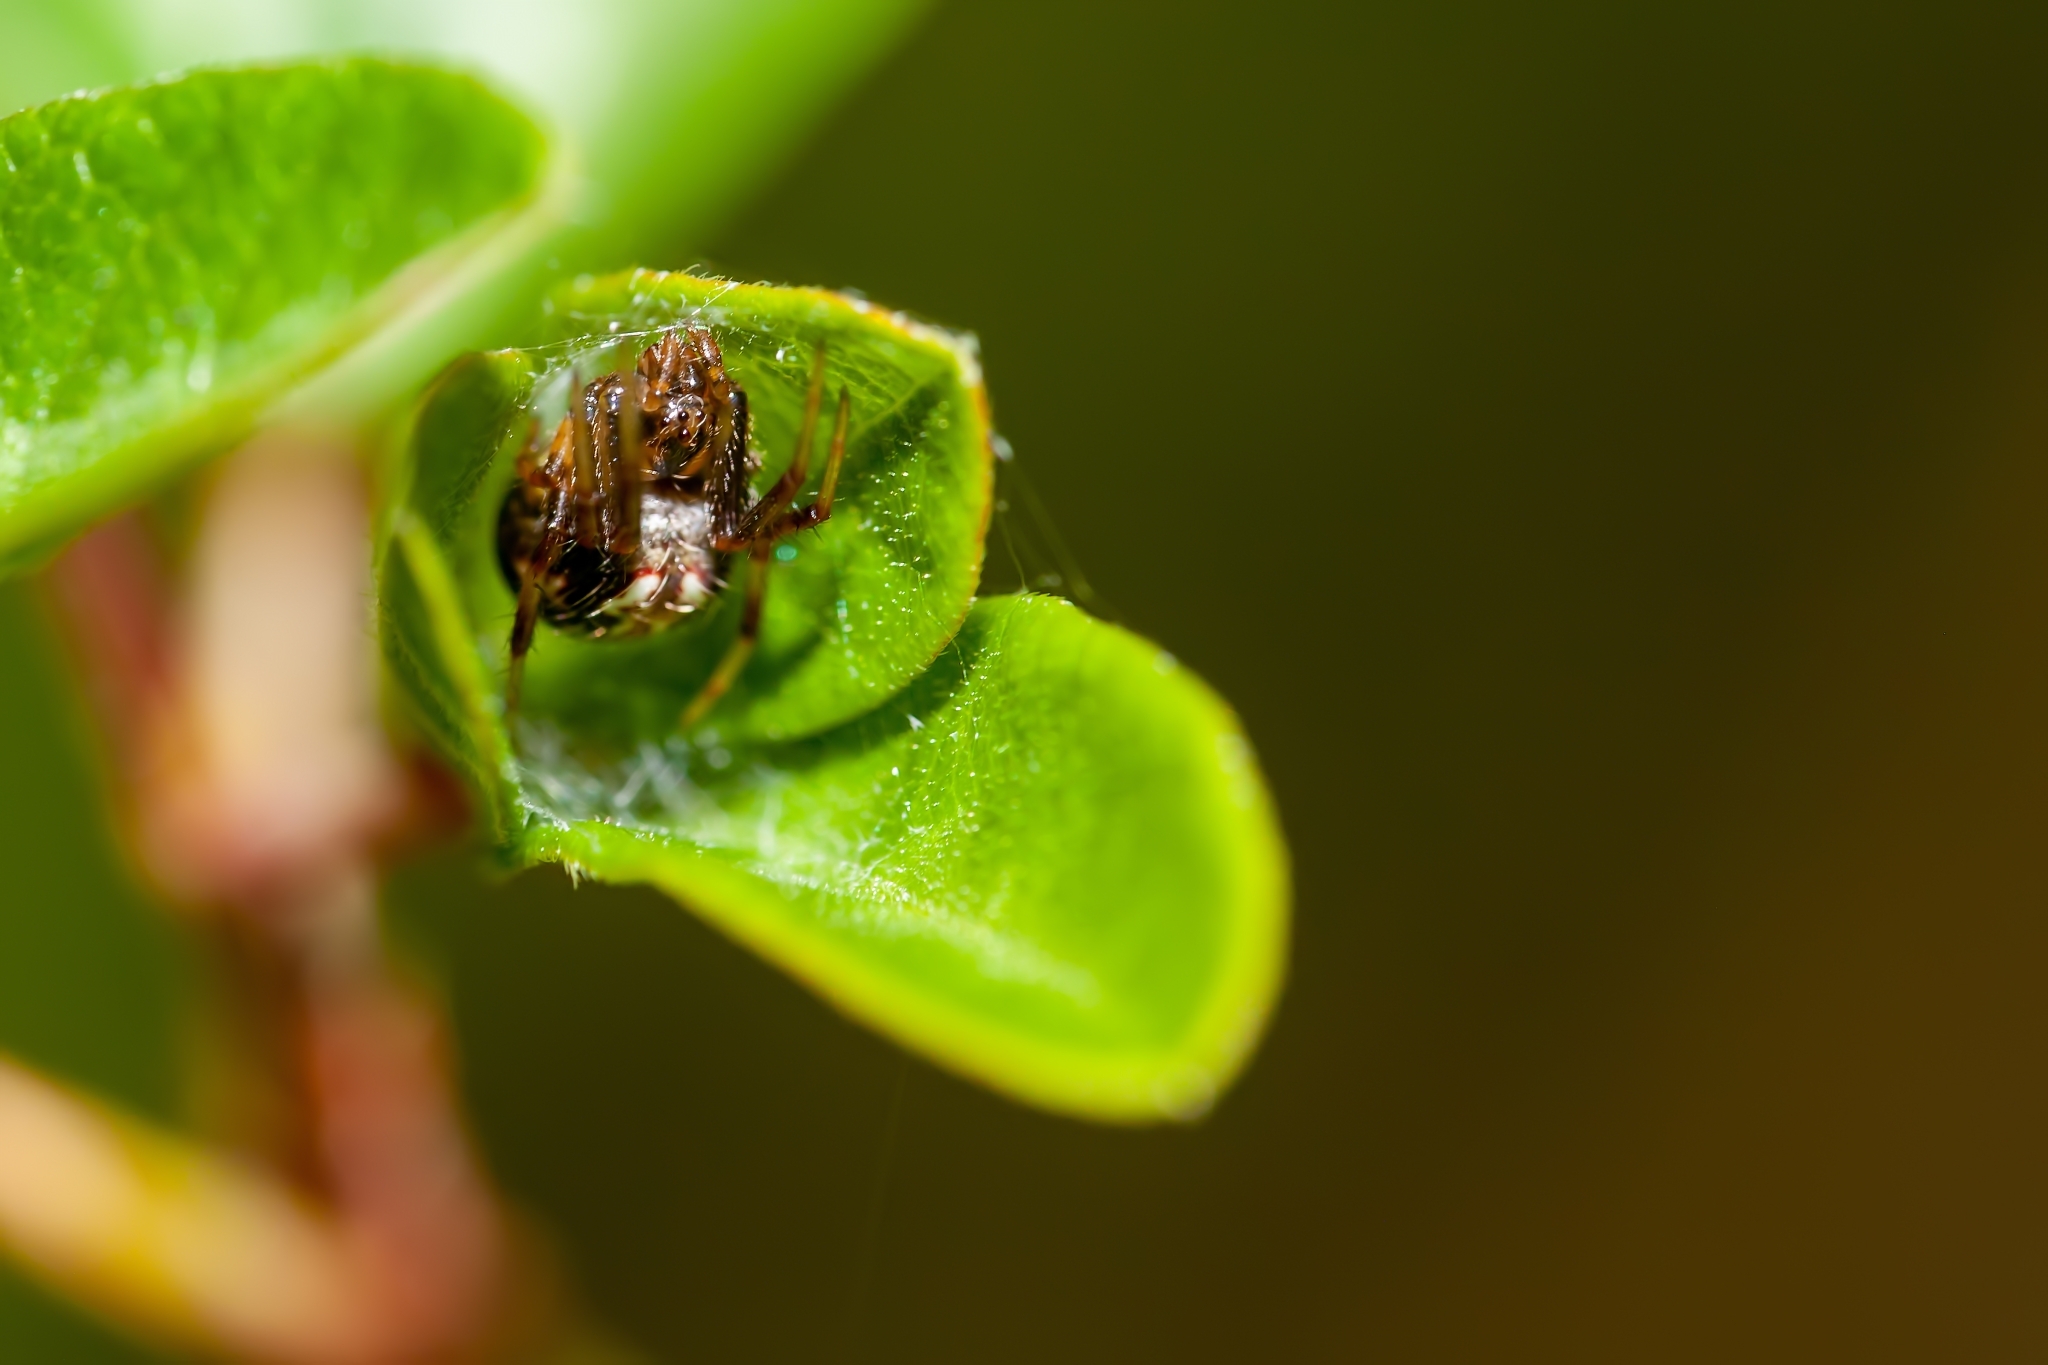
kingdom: Animalia
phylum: Arthropoda
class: Arachnida
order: Araneae
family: Araneidae
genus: Neoscona
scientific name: Neoscona arabesca
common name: Orb weavers
